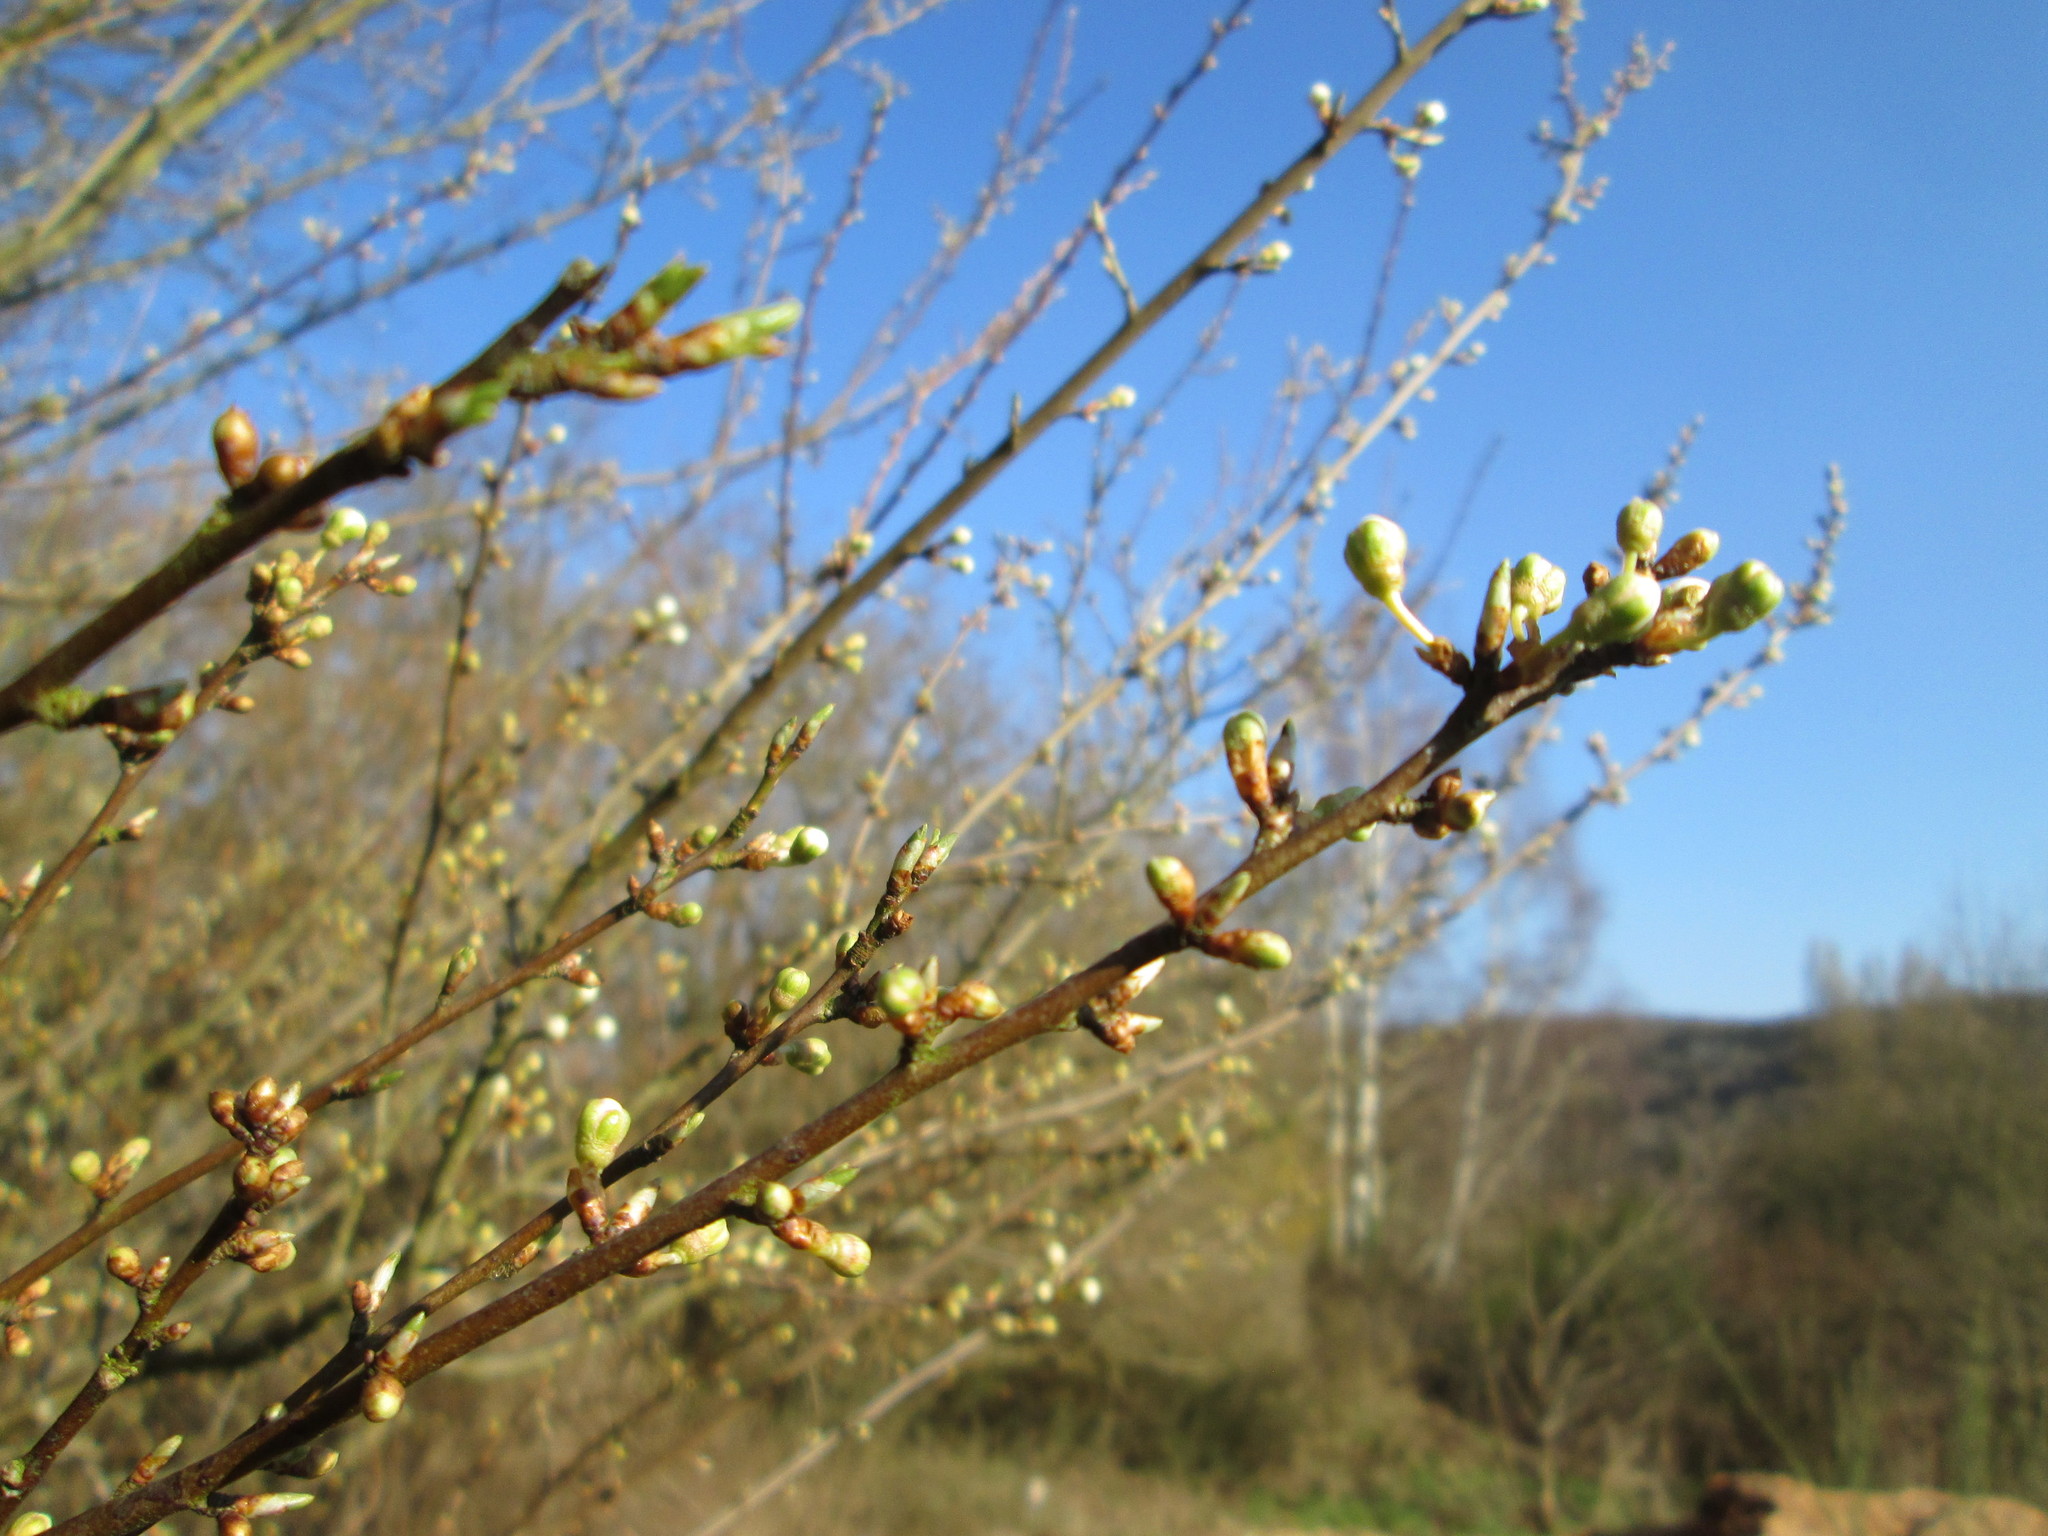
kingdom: Plantae
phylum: Tracheophyta
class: Magnoliopsida
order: Rosales
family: Rosaceae
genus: Prunus
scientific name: Prunus cerasifera
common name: Cherry plum
